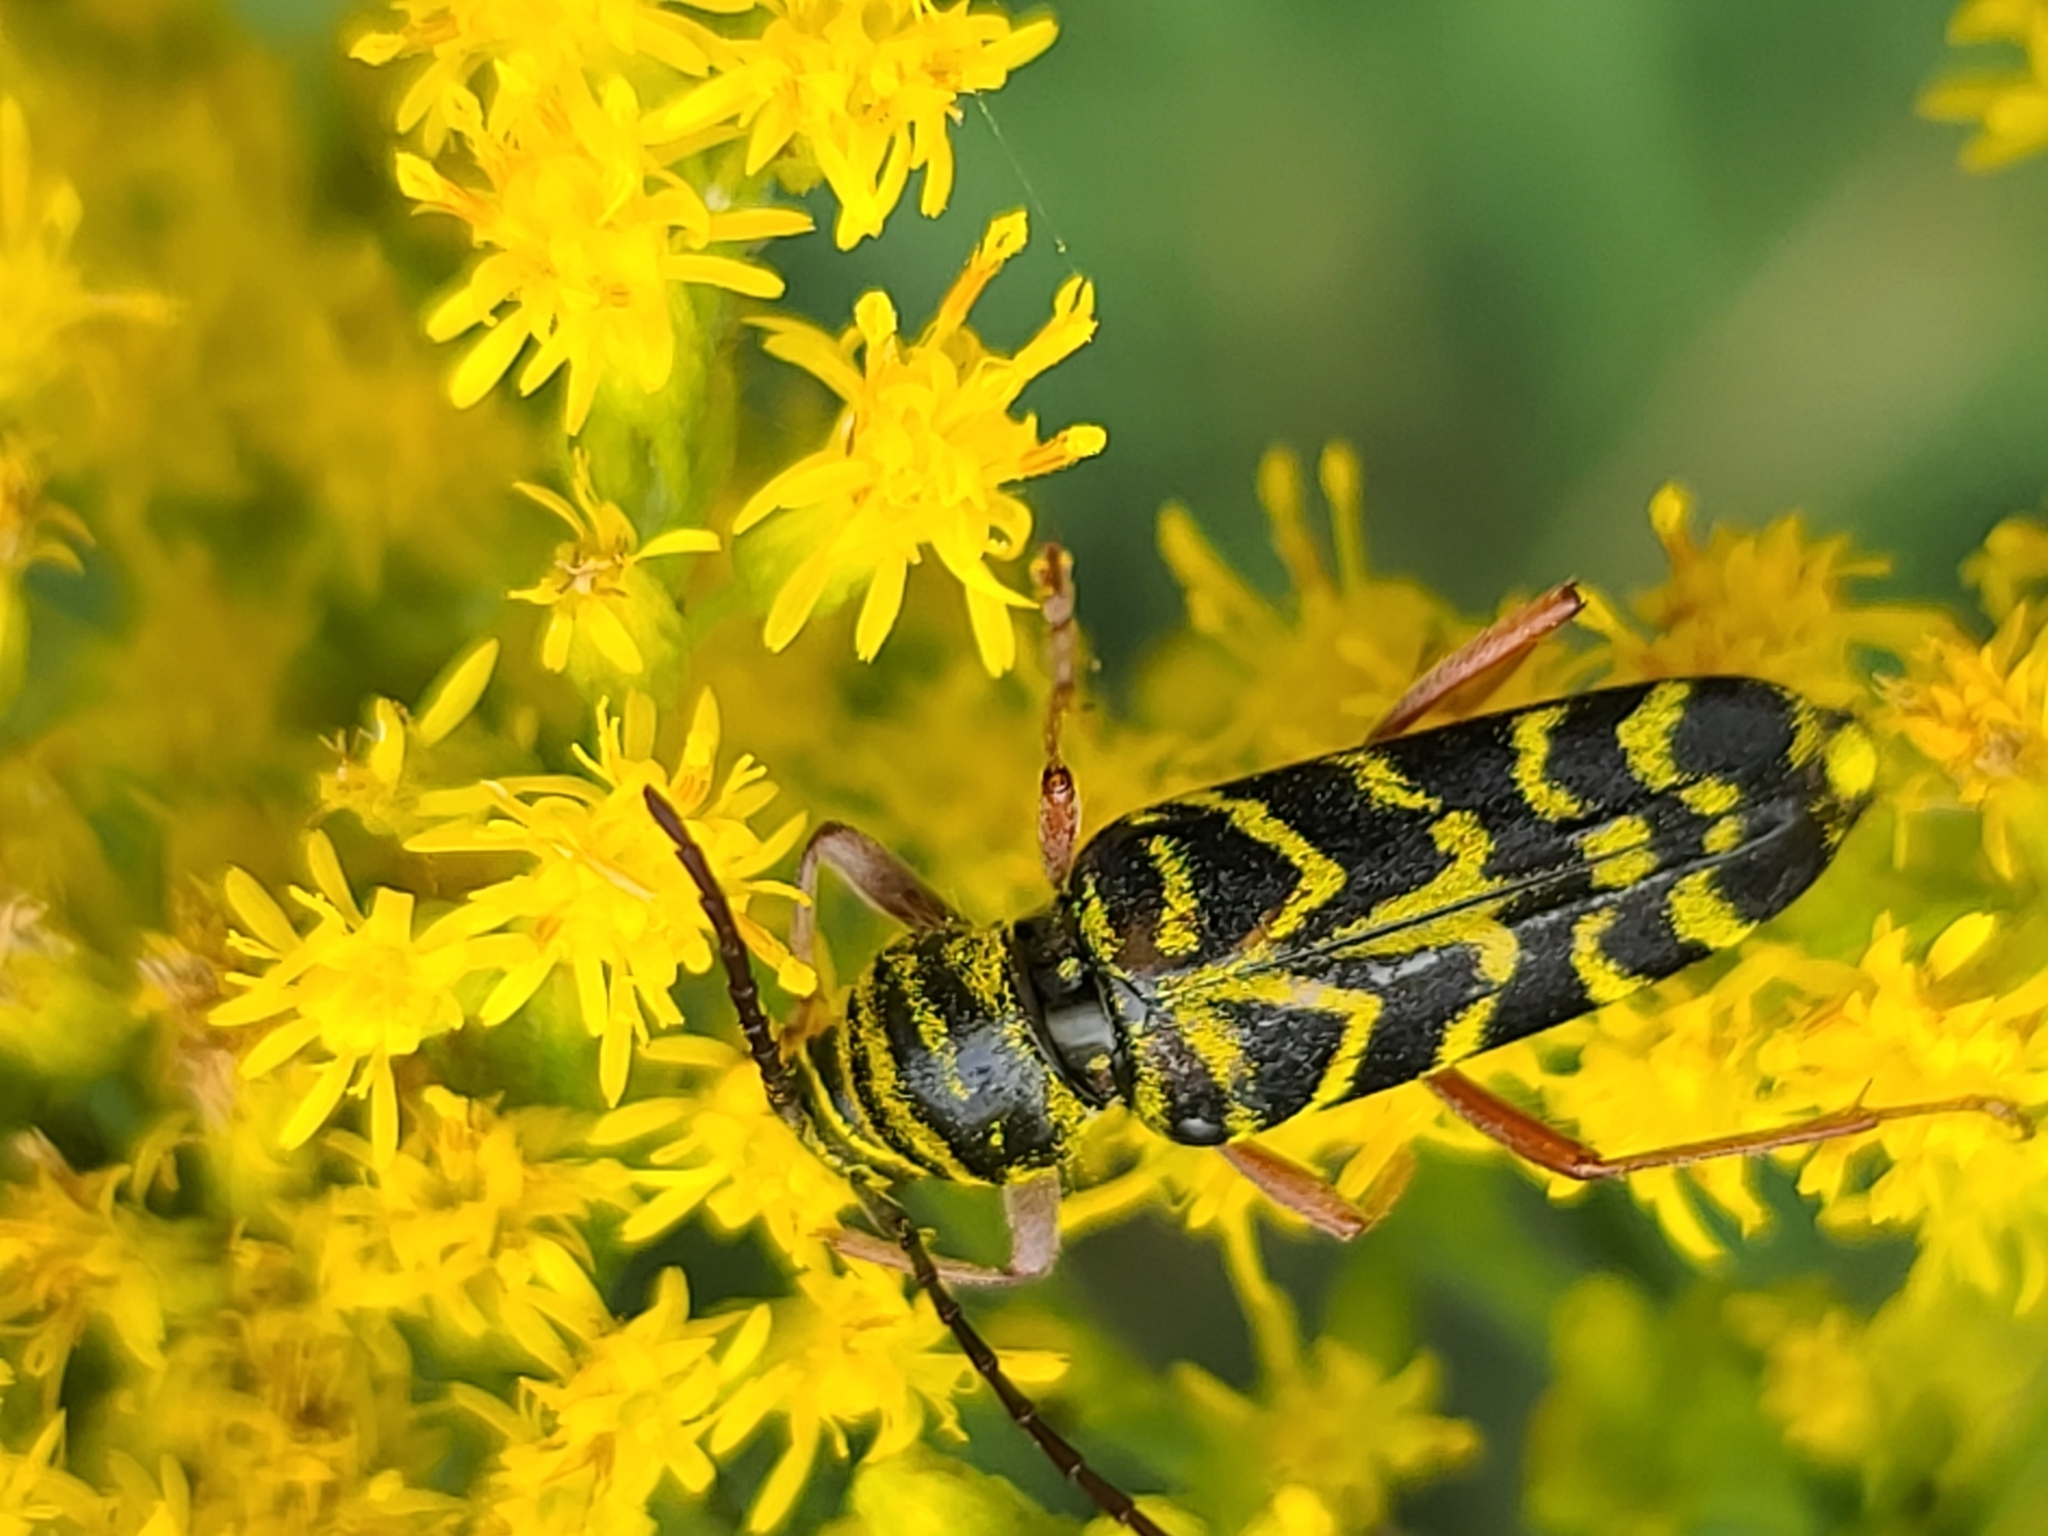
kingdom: Animalia
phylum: Arthropoda
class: Insecta
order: Coleoptera
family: Cerambycidae
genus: Megacyllene
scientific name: Megacyllene robiniae
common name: Locust borer
